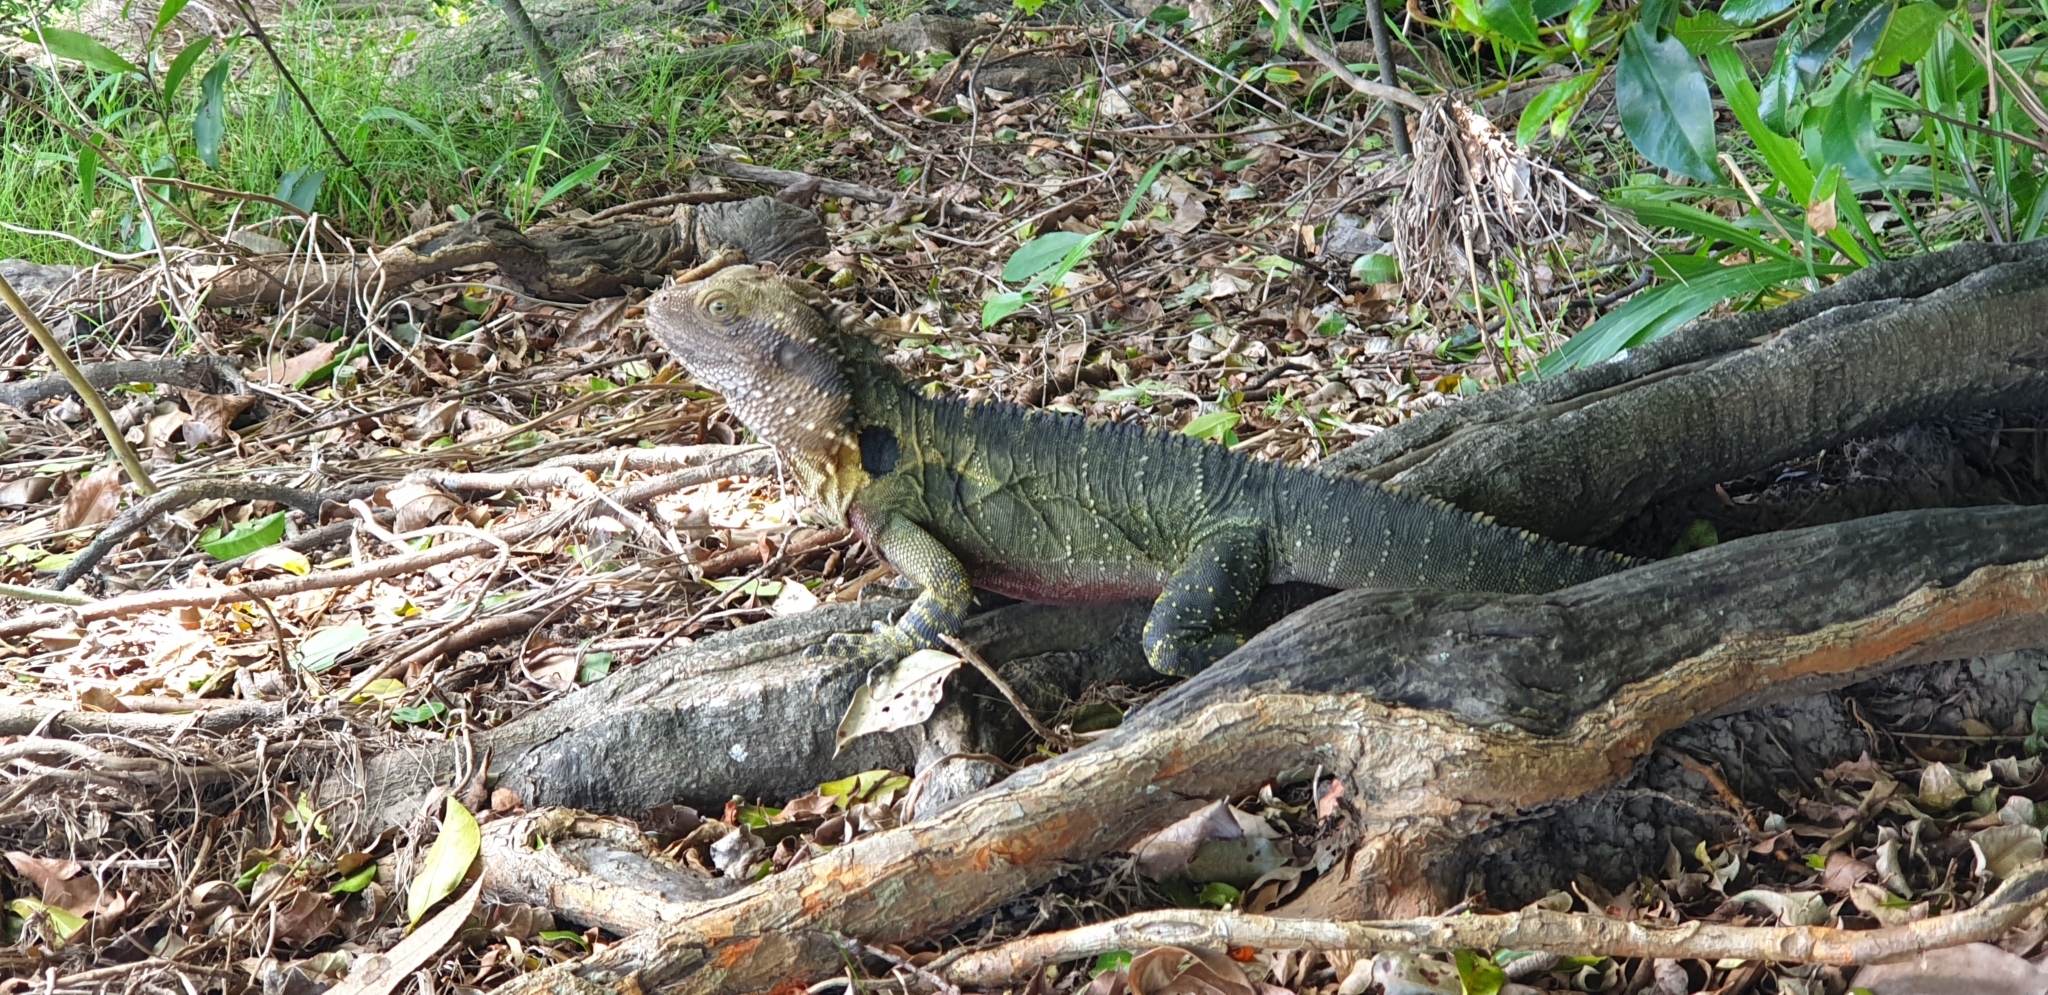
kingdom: Animalia
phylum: Chordata
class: Squamata
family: Agamidae
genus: Intellagama
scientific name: Intellagama lesueurii
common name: Eastern water dragon
